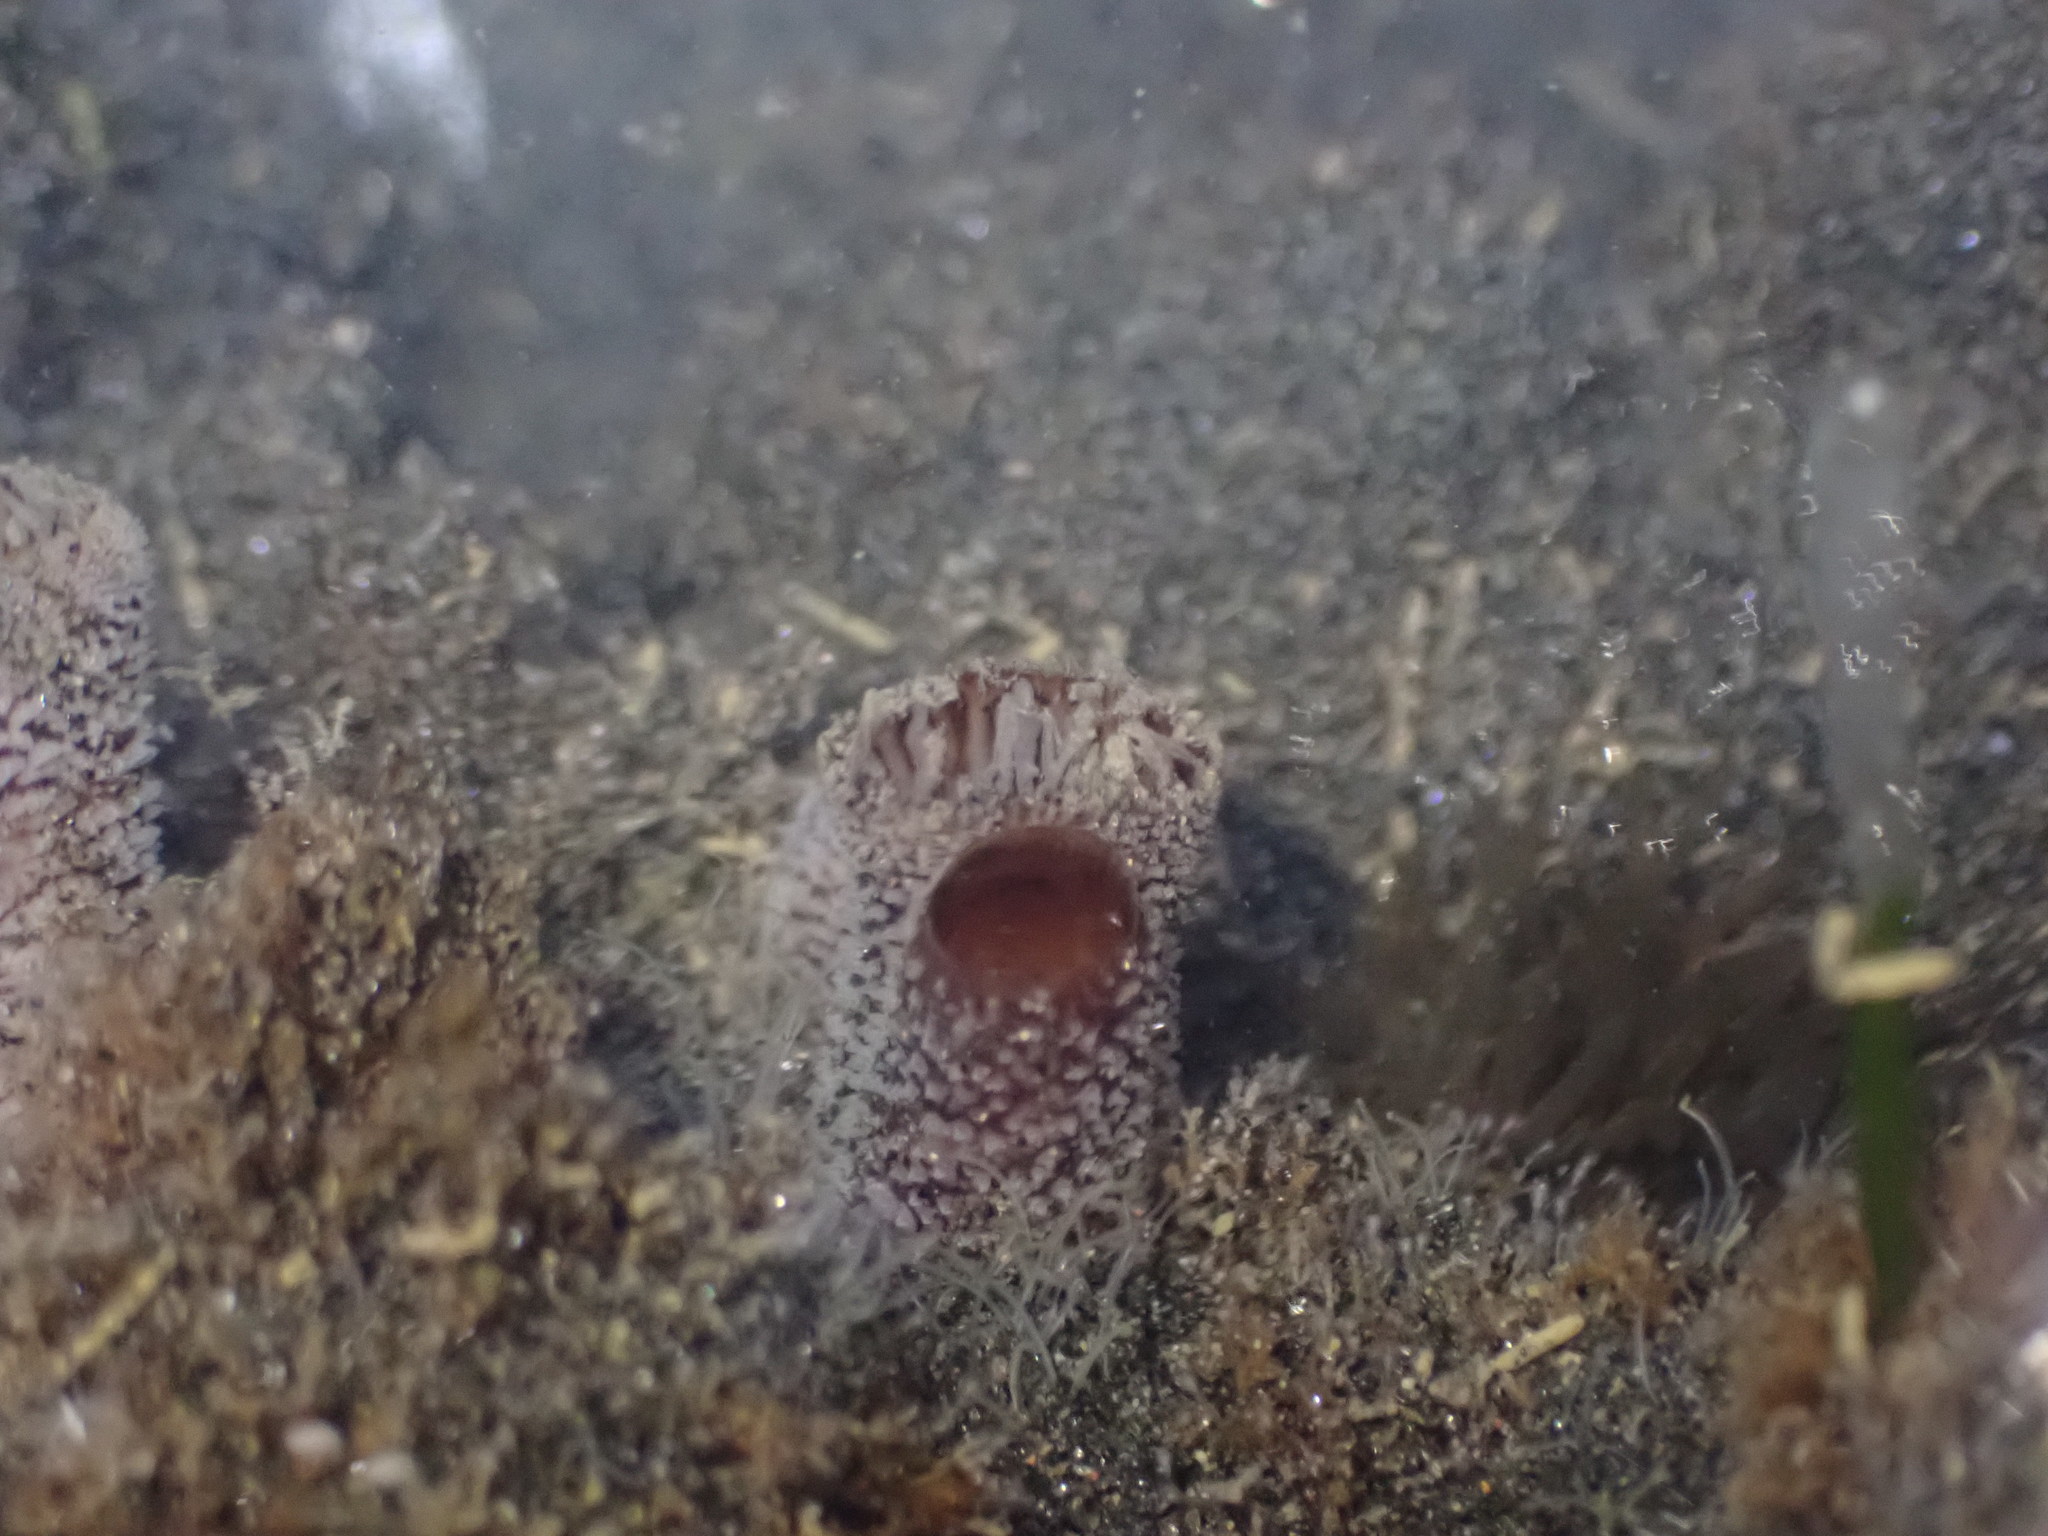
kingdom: Animalia
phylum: Mollusca
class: Bivalvia
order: Myida
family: Pholadidae
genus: Barnea
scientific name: Barnea similis
